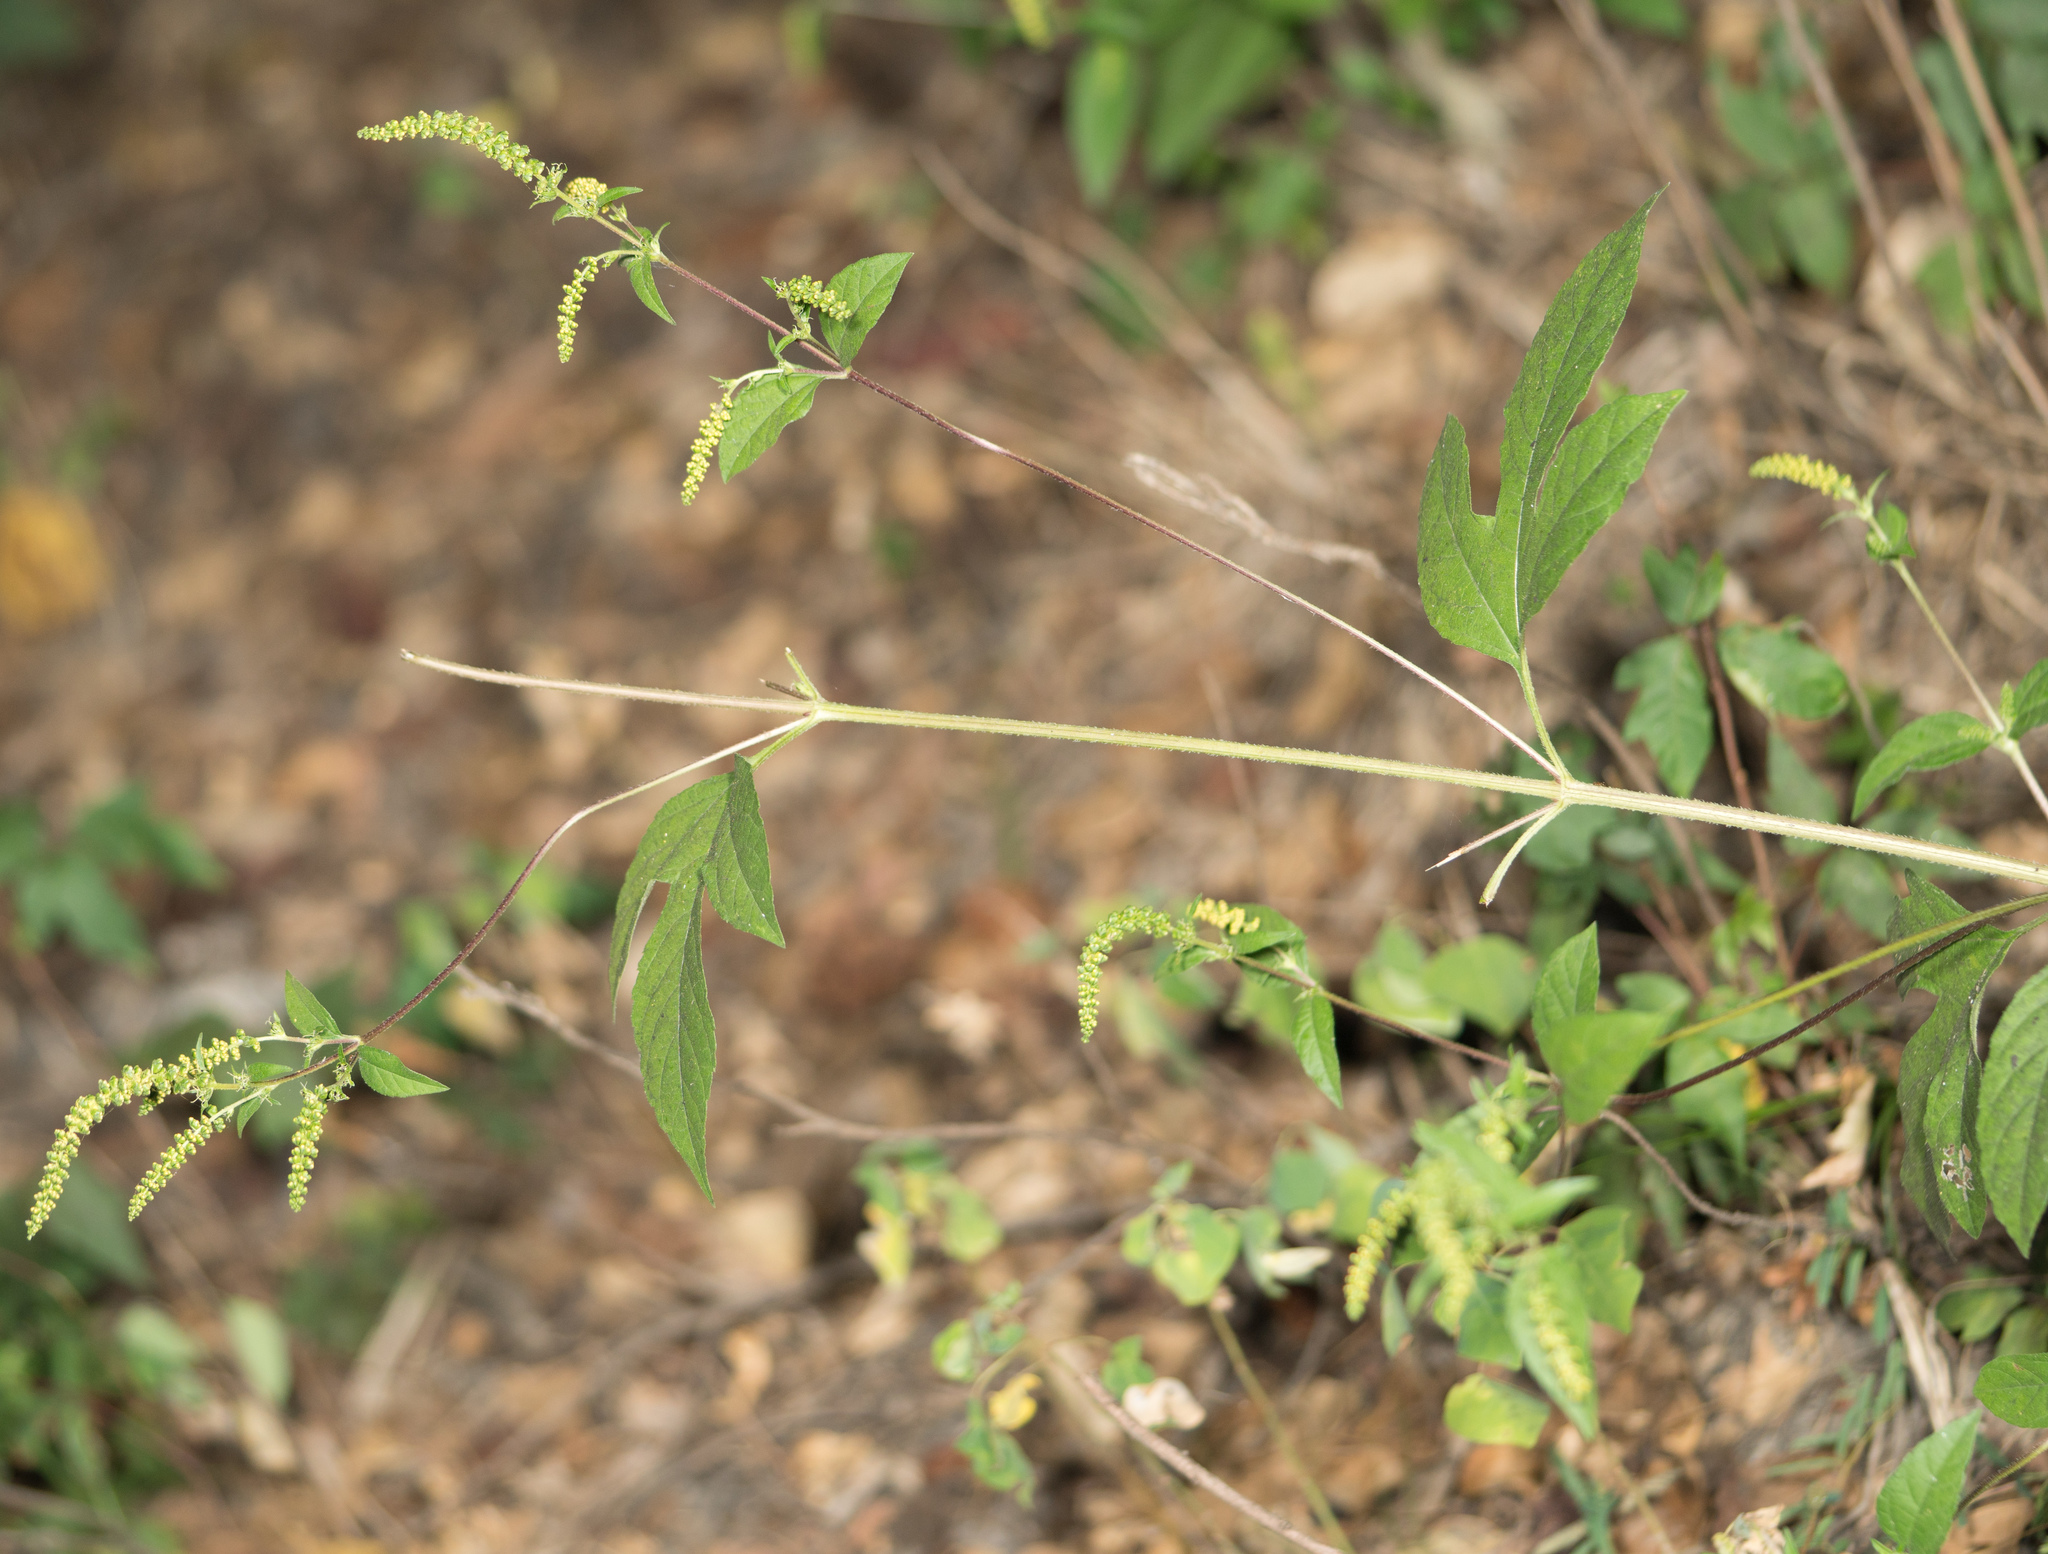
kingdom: Plantae
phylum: Tracheophyta
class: Magnoliopsida
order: Asterales
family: Asteraceae
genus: Ambrosia
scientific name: Ambrosia trifida
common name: Giant ragweed
